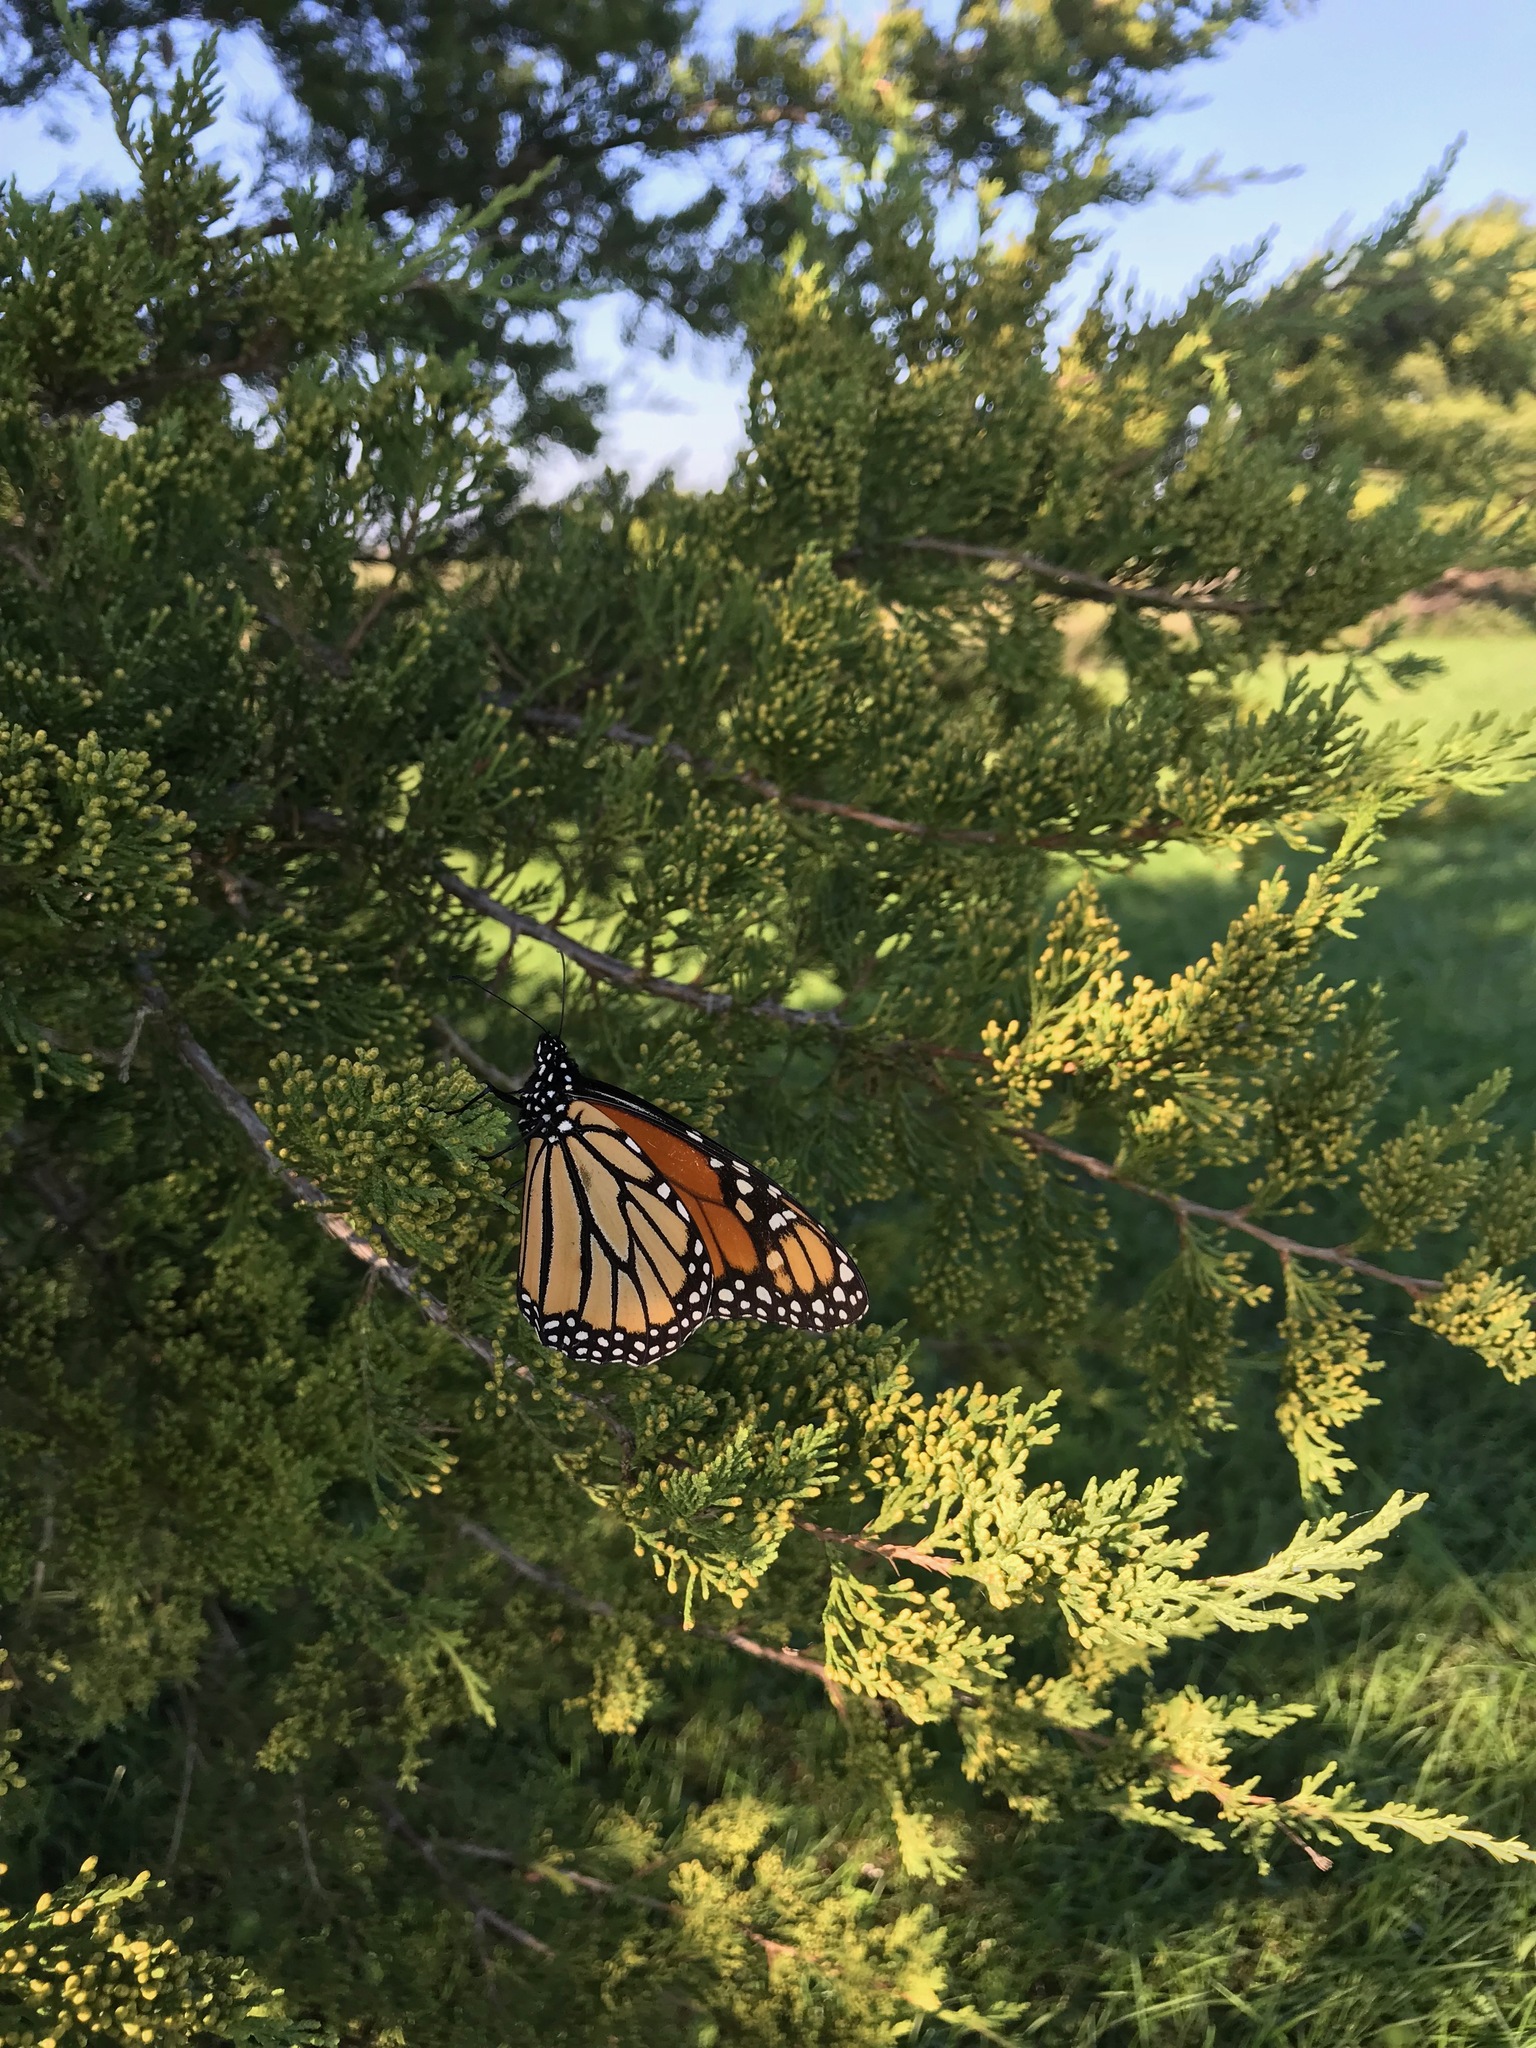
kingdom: Animalia
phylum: Arthropoda
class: Insecta
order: Lepidoptera
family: Nymphalidae
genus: Danaus
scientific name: Danaus plexippus
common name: Monarch
